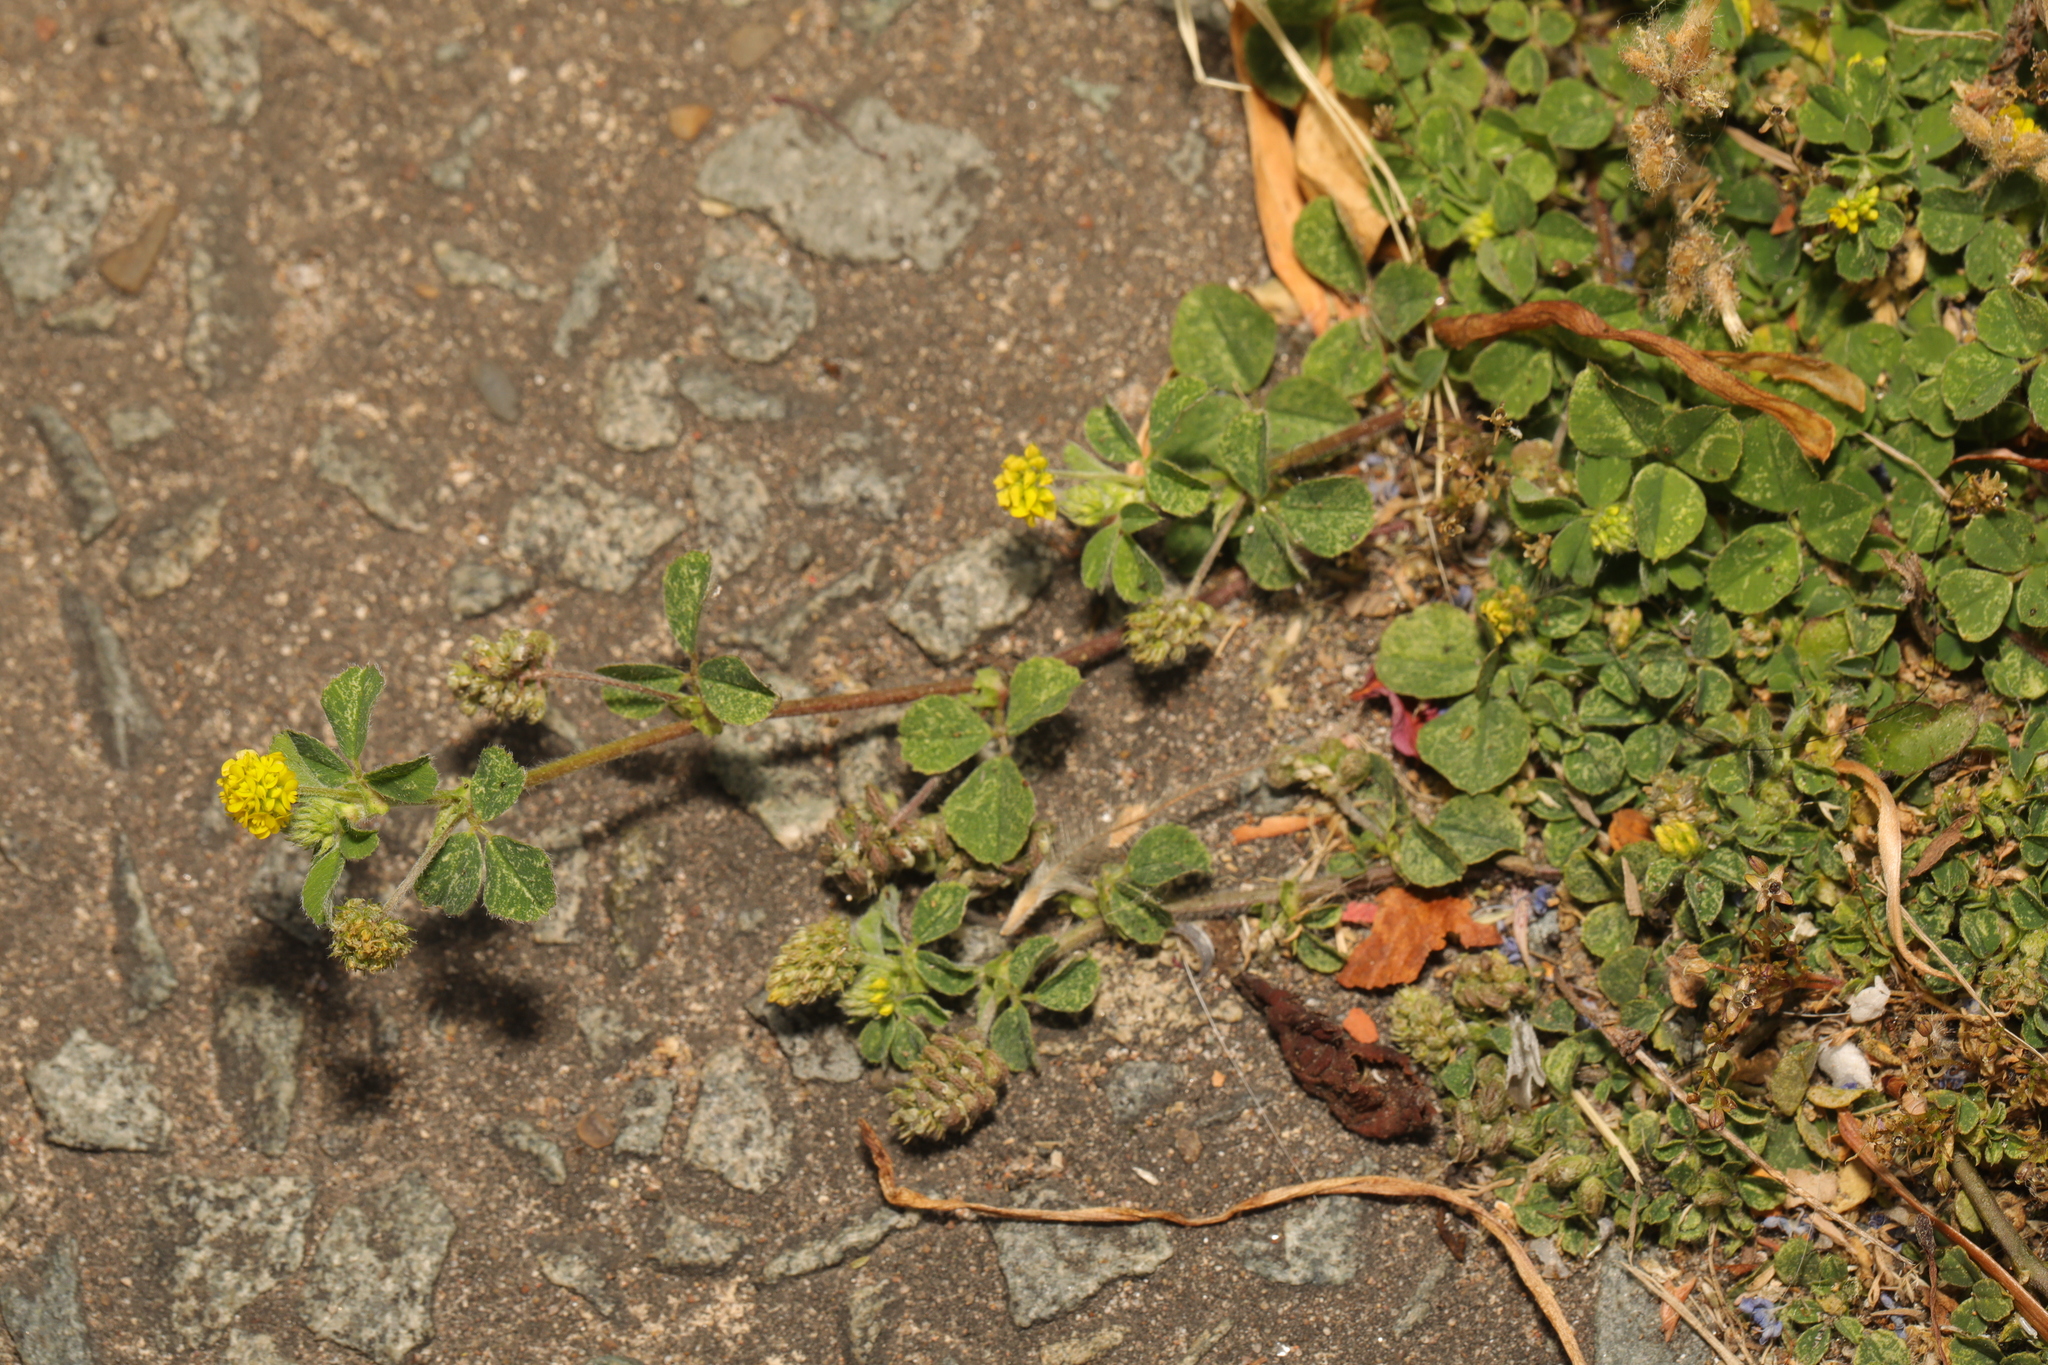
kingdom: Plantae
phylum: Tracheophyta
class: Magnoliopsida
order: Fabales
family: Fabaceae
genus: Medicago
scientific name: Medicago lupulina
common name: Black medick
